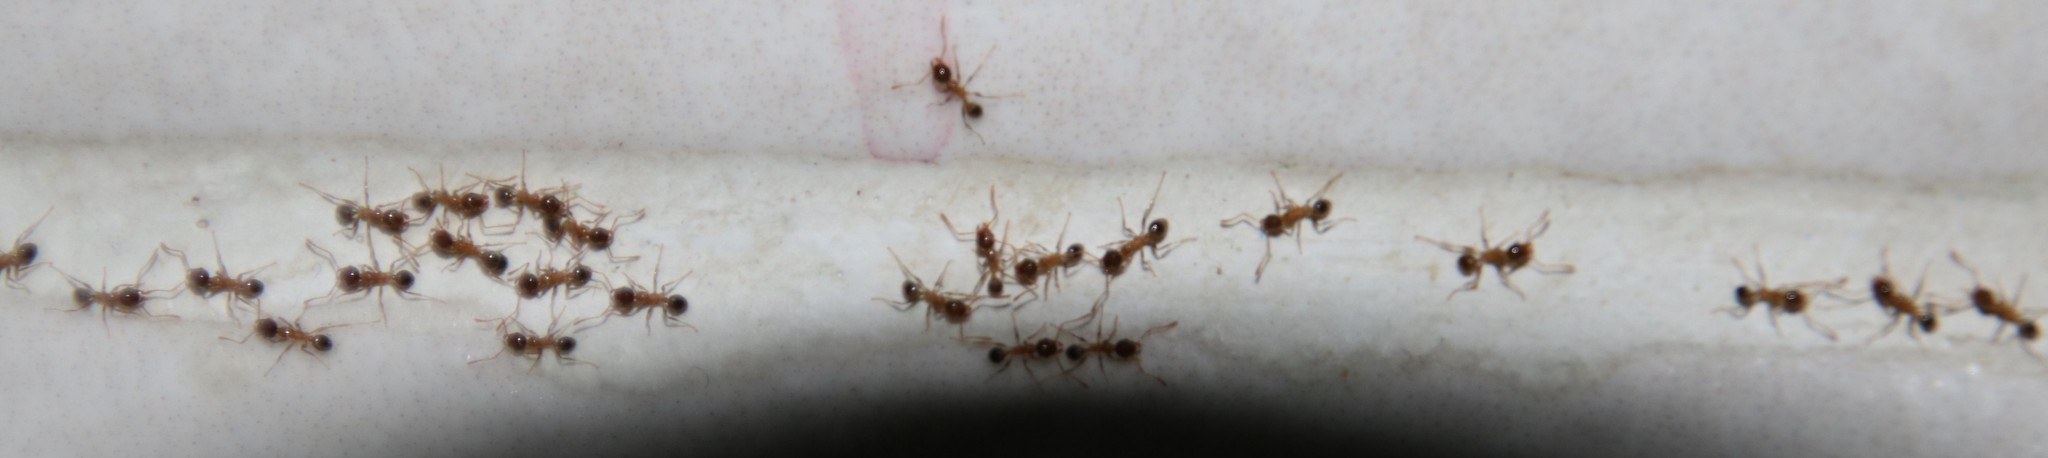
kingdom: Animalia
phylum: Arthropoda
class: Insecta
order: Hymenoptera
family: Formicidae
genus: Pheidole
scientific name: Pheidole megacephala
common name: Bigheaded ant
